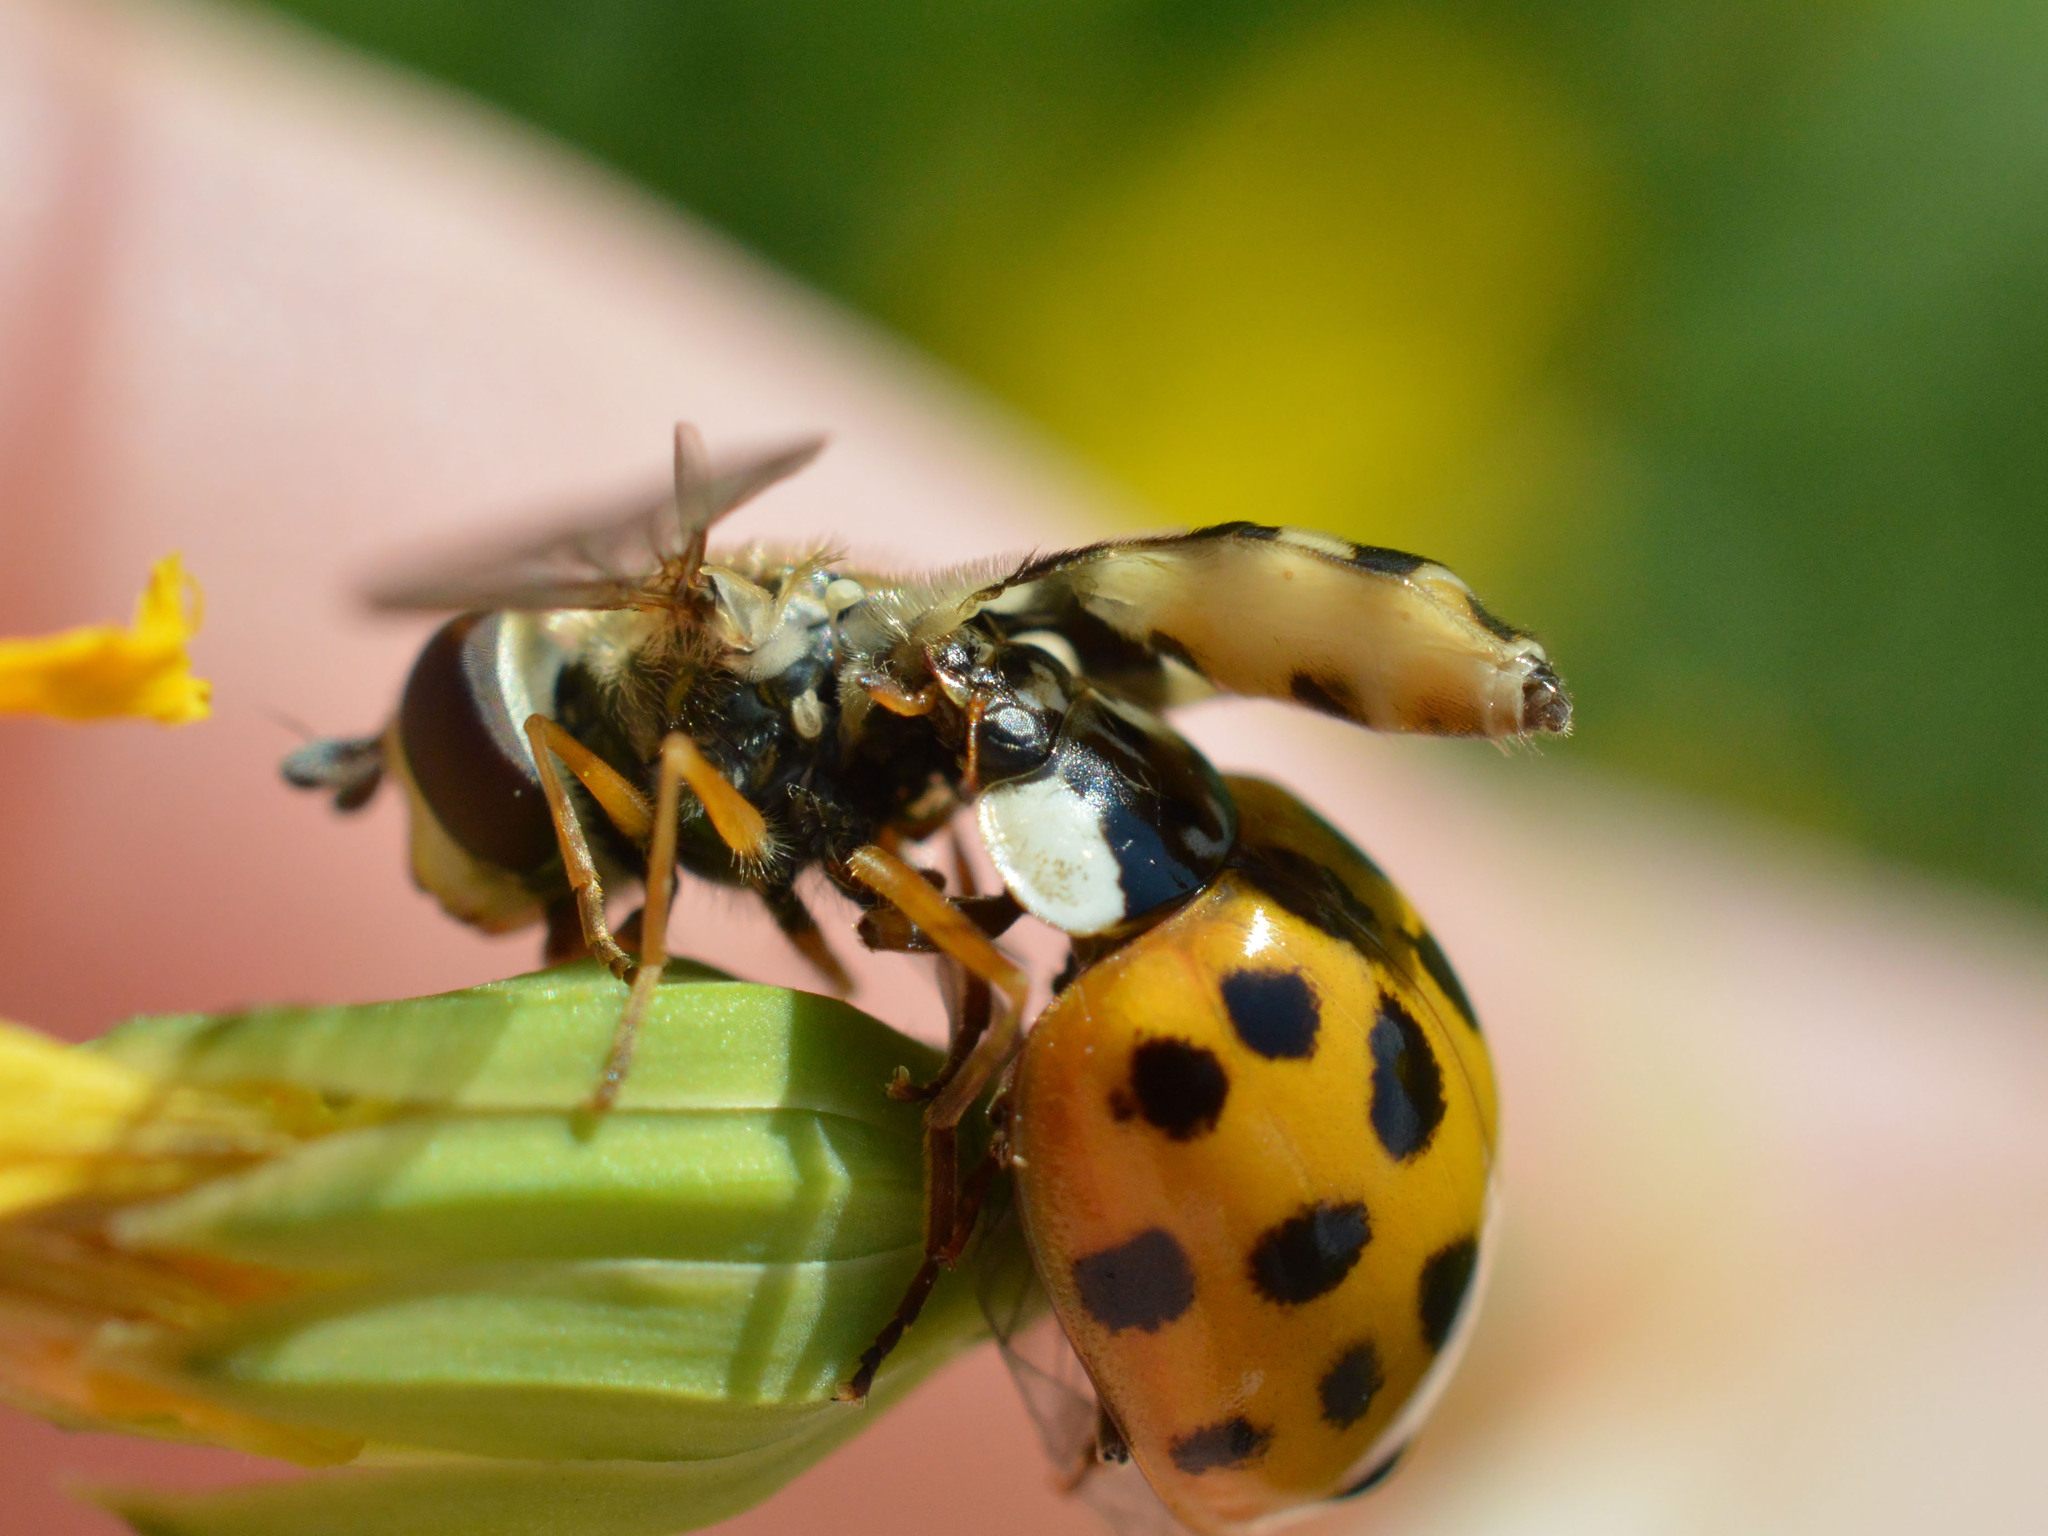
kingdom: Animalia
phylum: Arthropoda
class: Insecta
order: Coleoptera
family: Coccinellidae
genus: Harmonia
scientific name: Harmonia axyridis
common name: Harlequin ladybird
